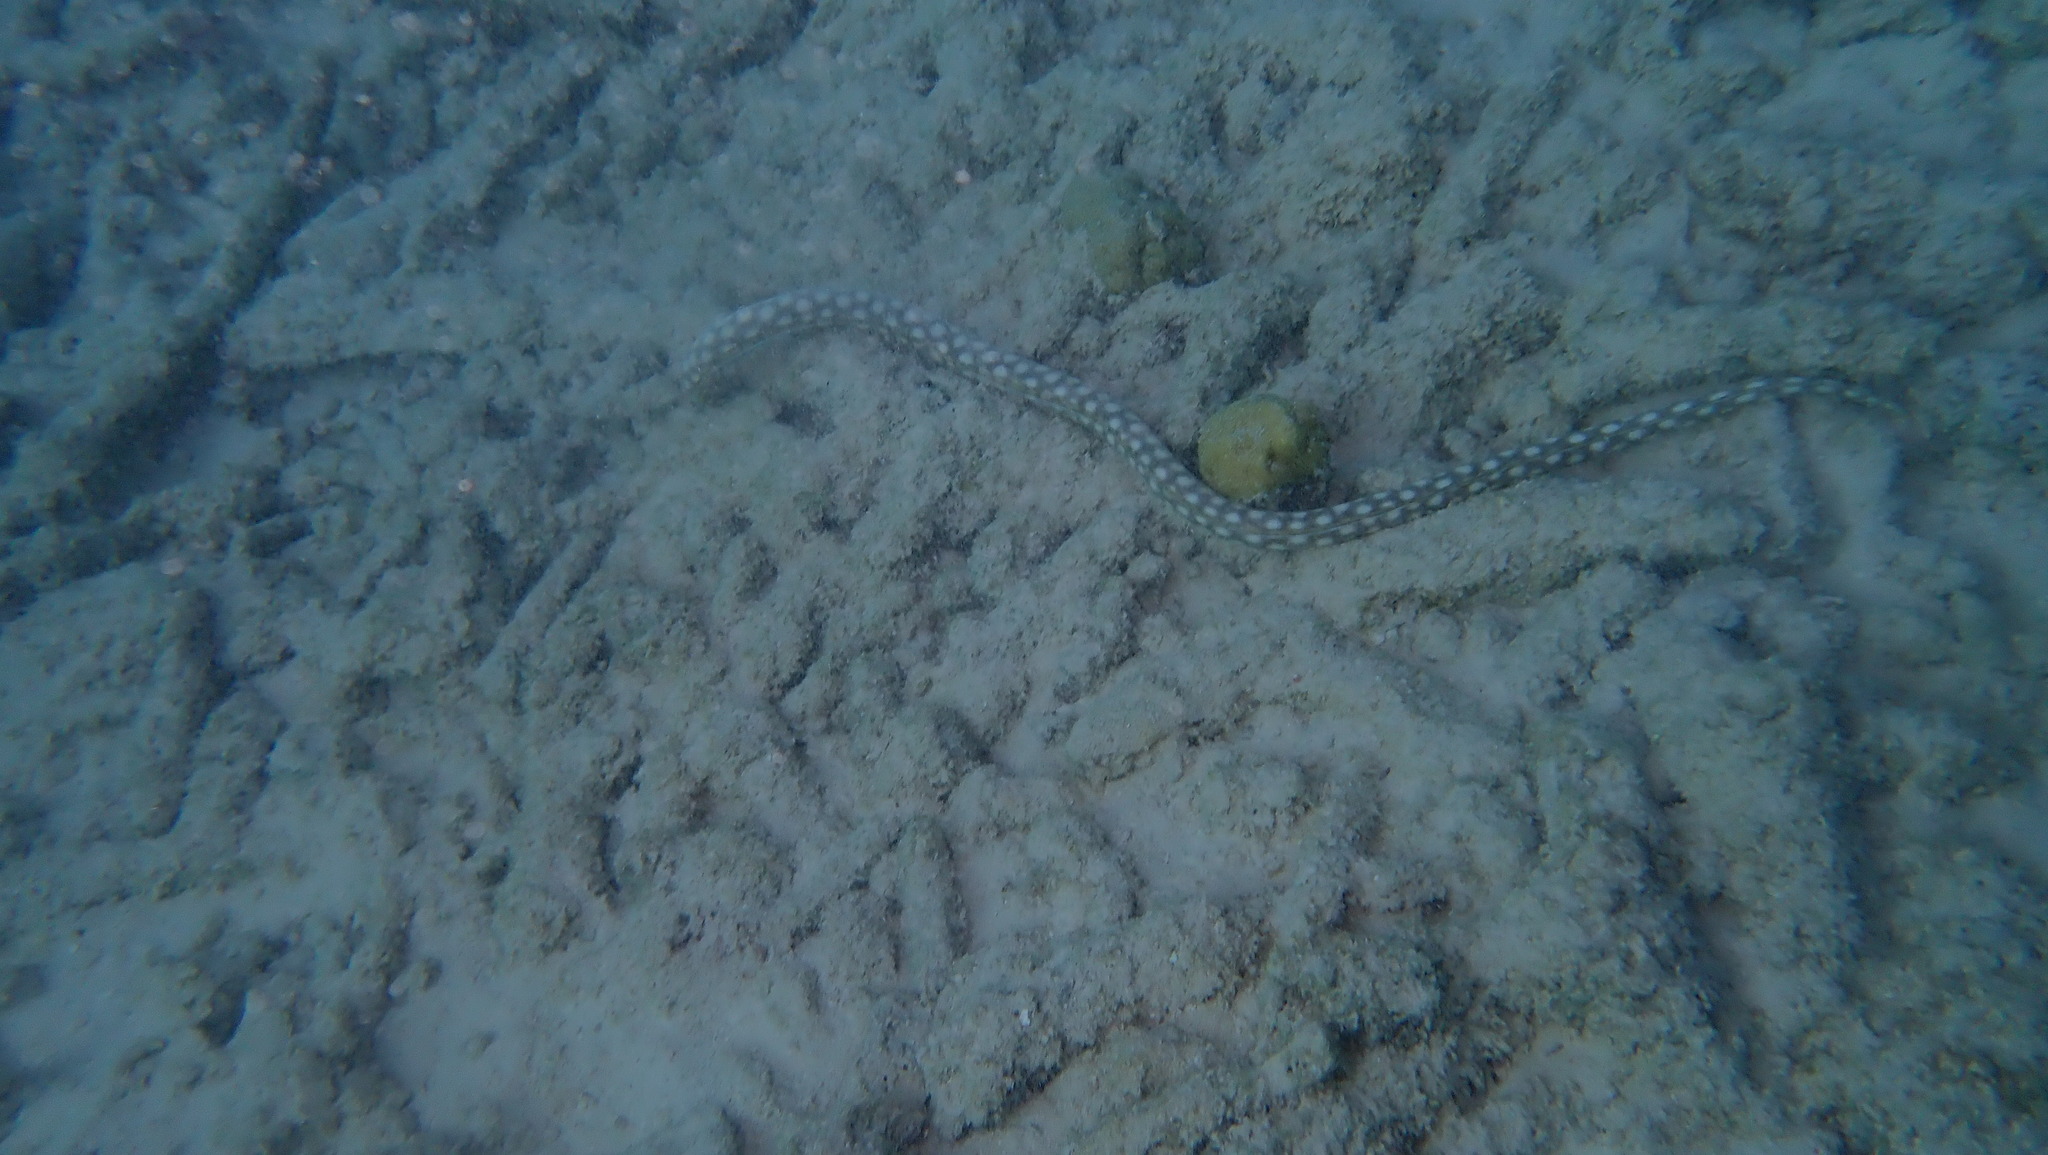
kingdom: Animalia
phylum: Chordata
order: Anguilliformes
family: Ophichthidae
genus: Myrichthys
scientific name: Myrichthys breviceps
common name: Sharptail eel
